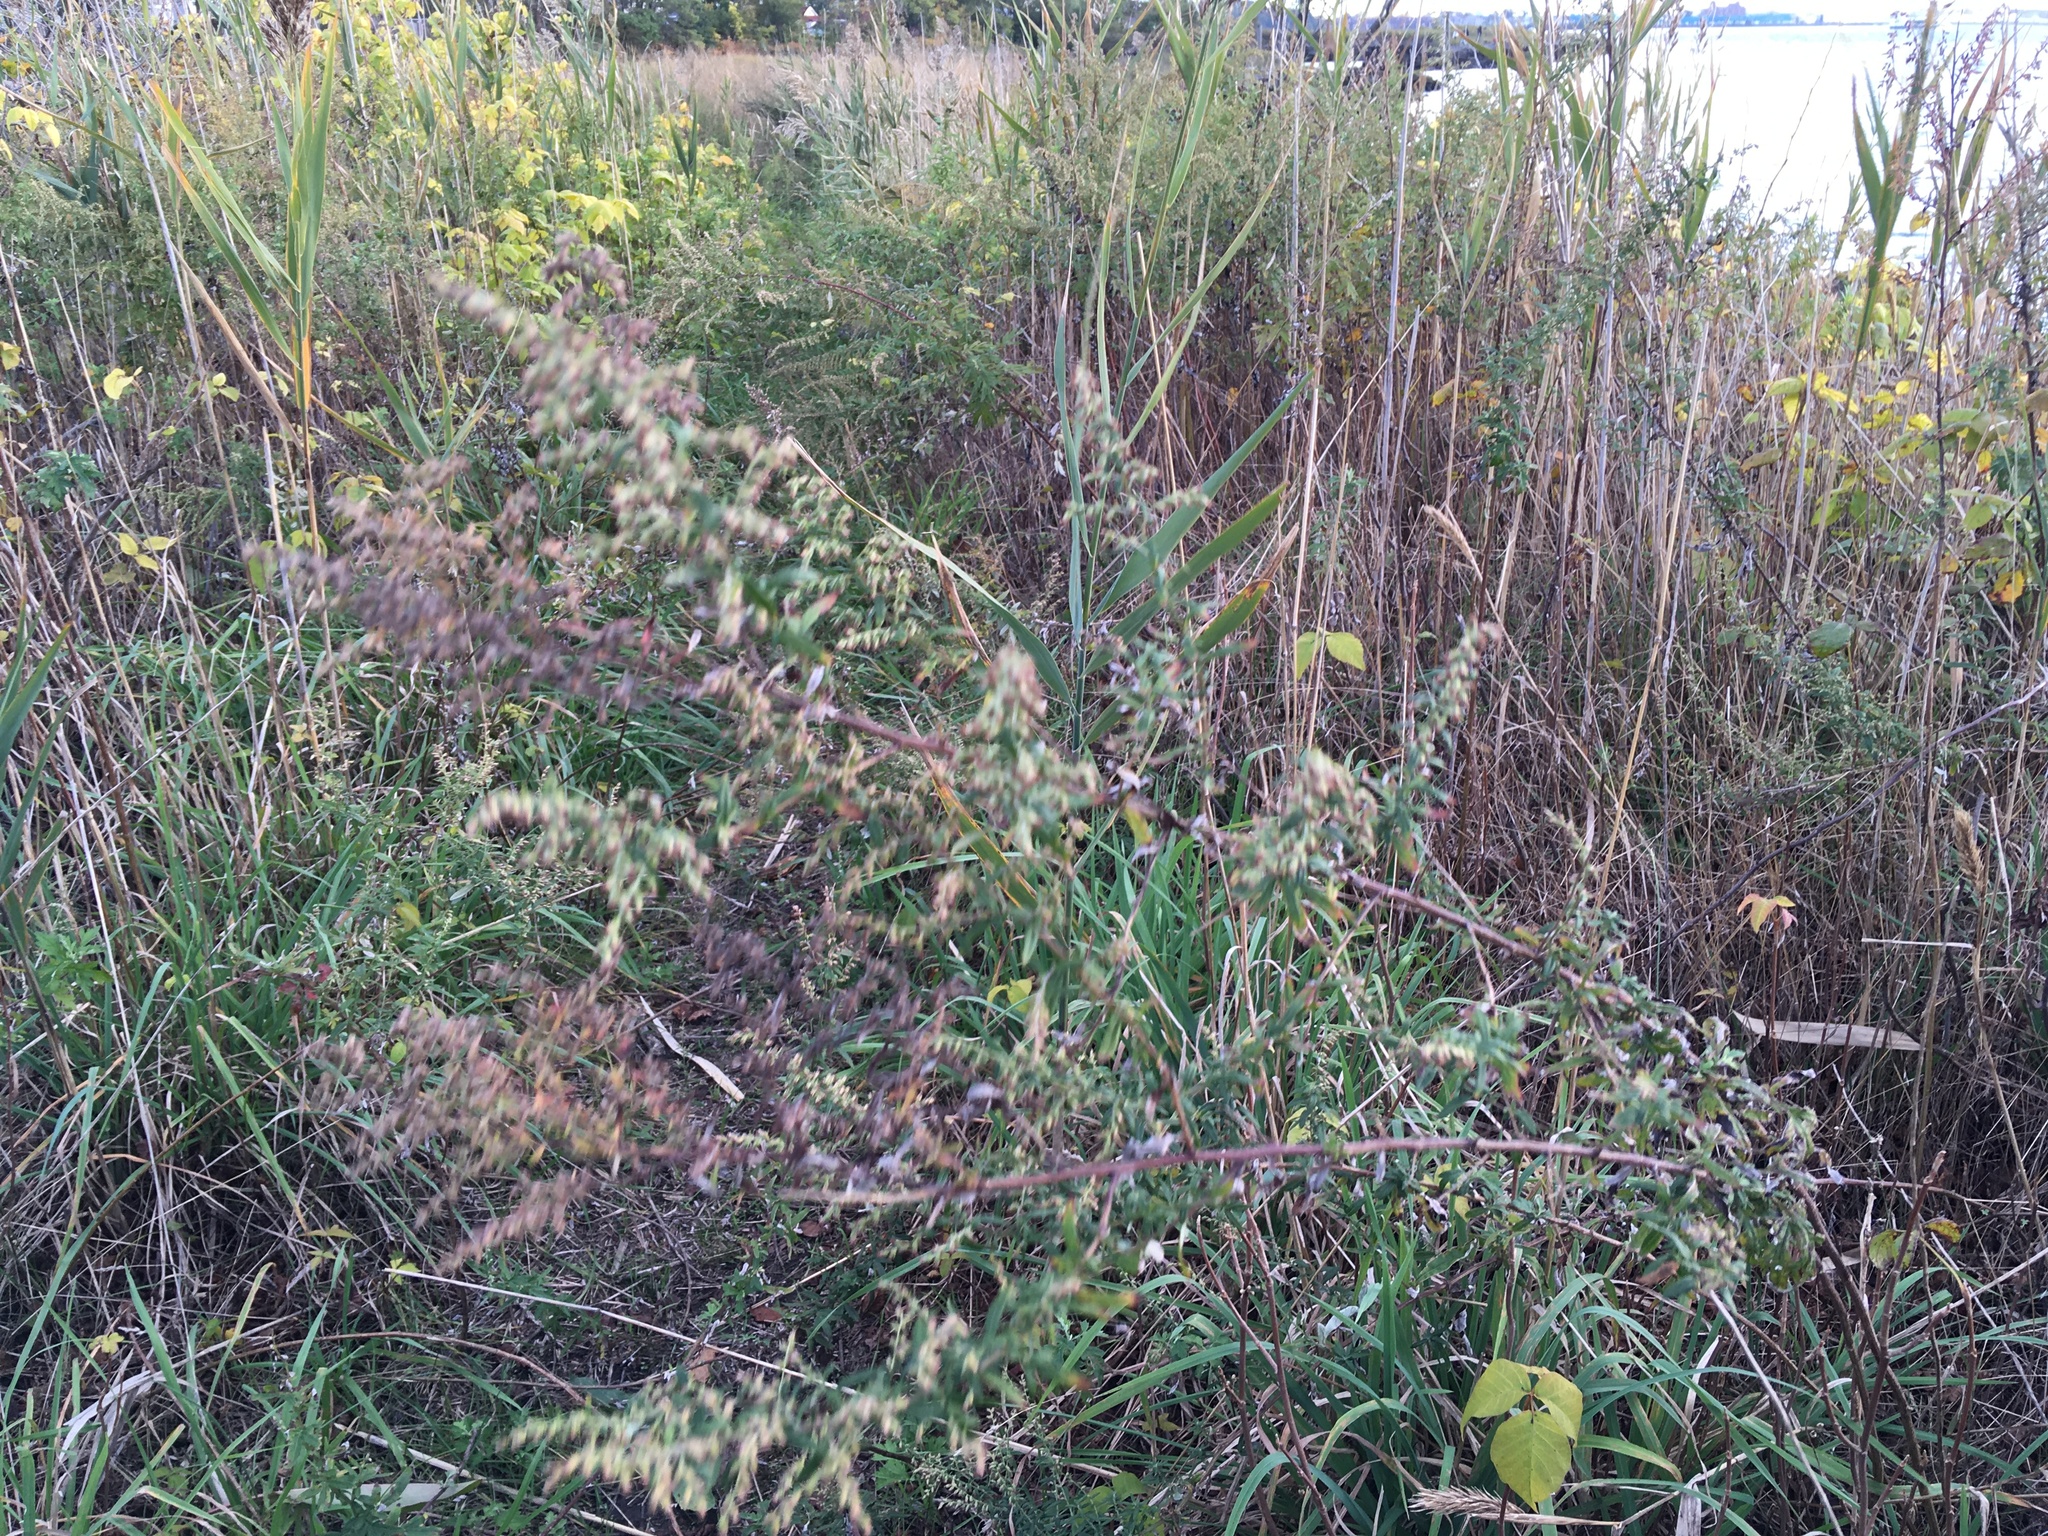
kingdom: Plantae
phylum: Tracheophyta
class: Magnoliopsida
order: Asterales
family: Asteraceae
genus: Artemisia
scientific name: Artemisia vulgaris
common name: Mugwort
